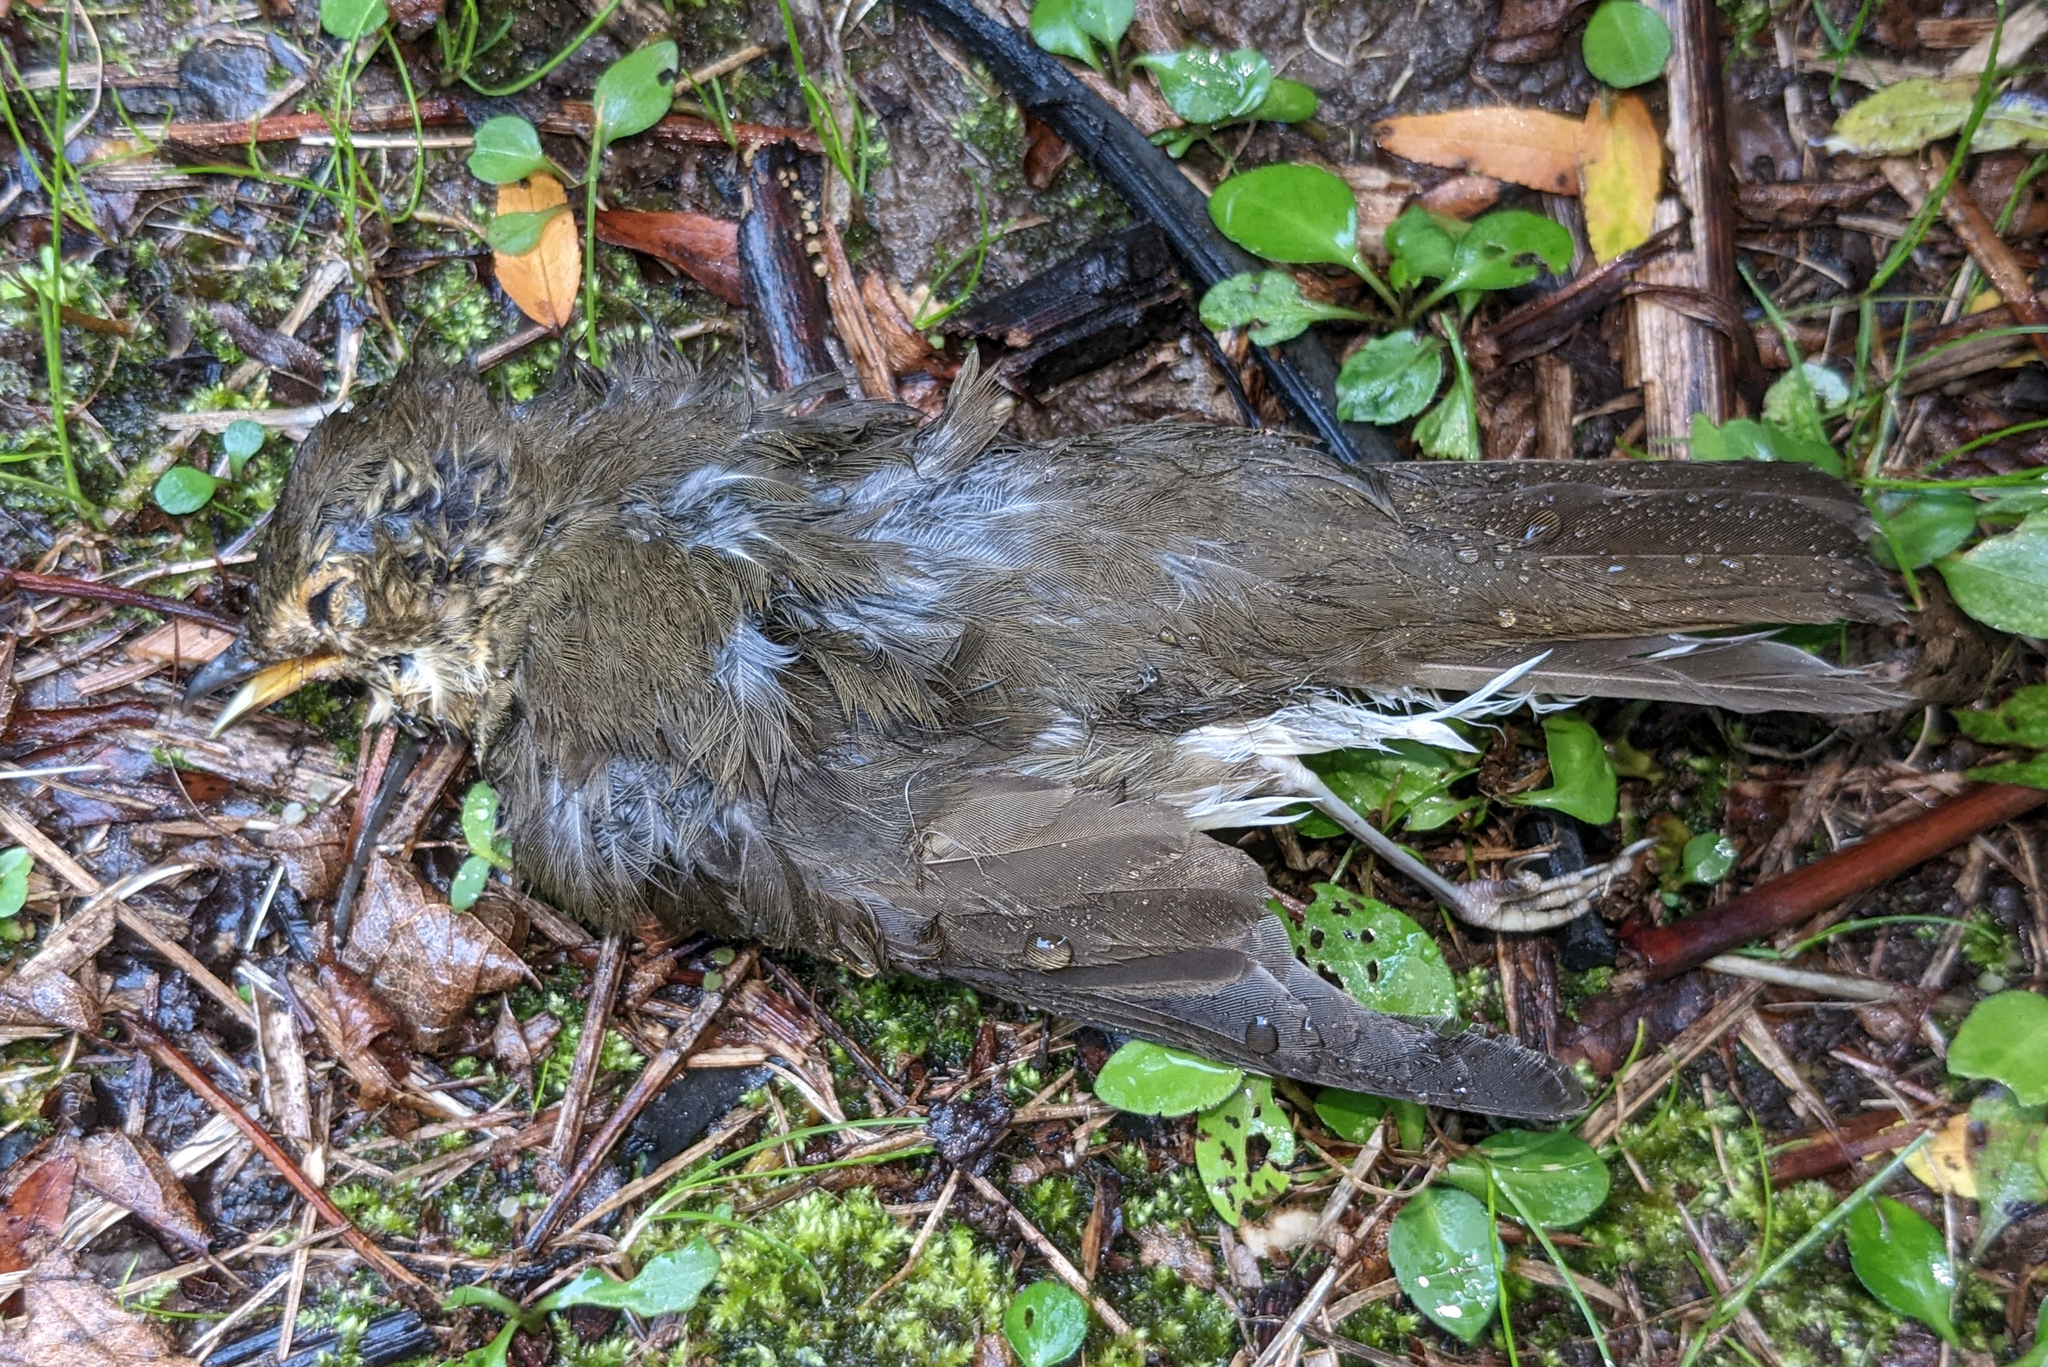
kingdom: Animalia
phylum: Chordata
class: Aves
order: Passeriformes
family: Turdidae
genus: Catharus
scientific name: Catharus ustulatus
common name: Swainson's thrush
